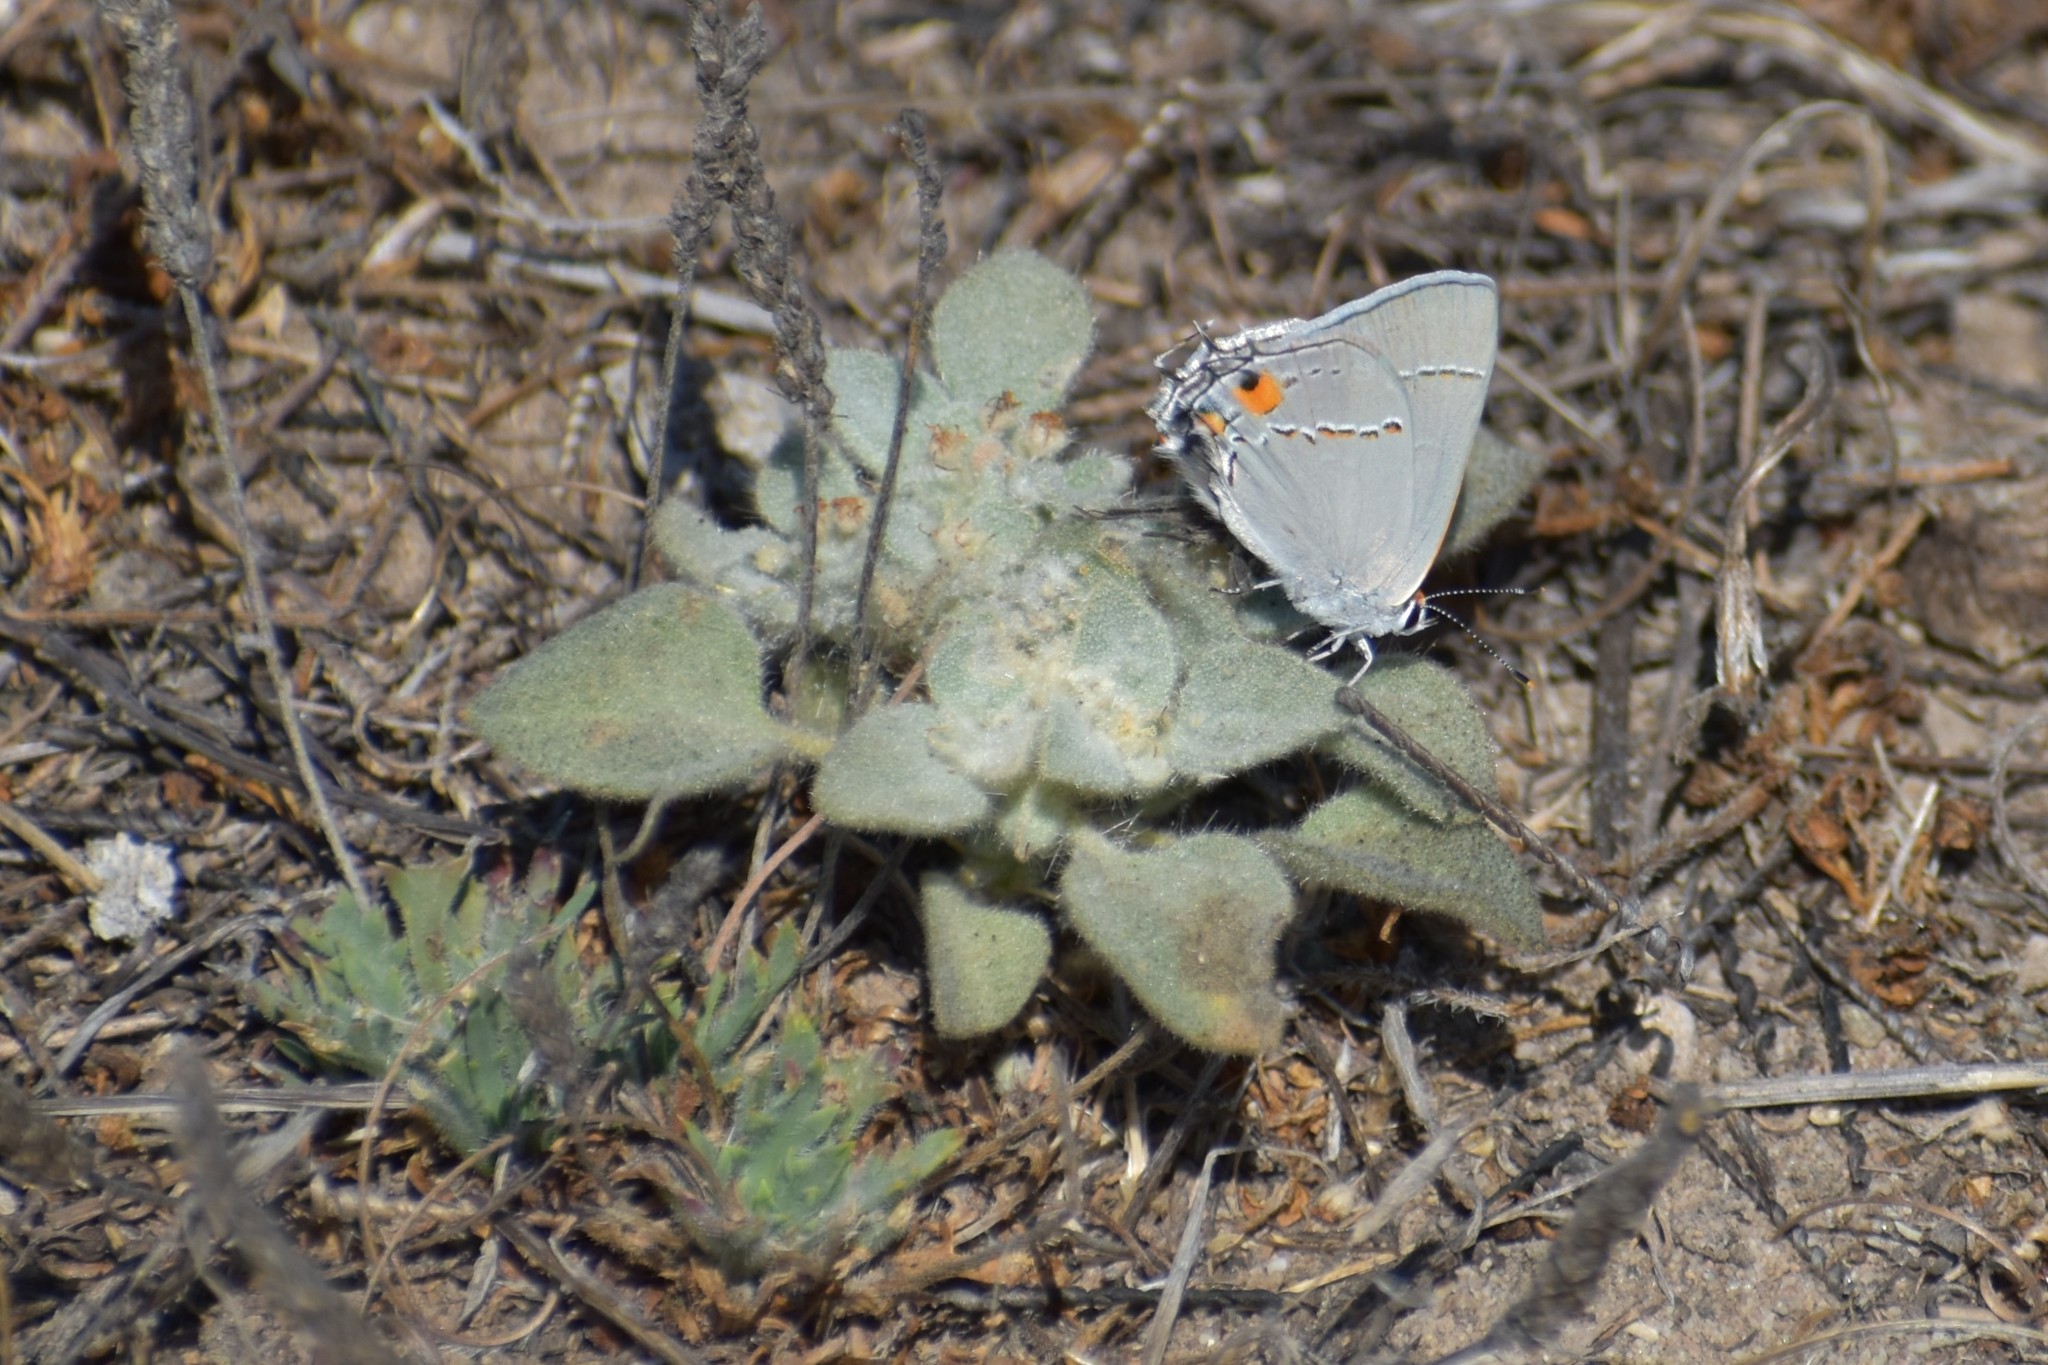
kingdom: Animalia
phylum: Arthropoda
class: Insecta
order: Lepidoptera
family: Lycaenidae
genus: Strymon
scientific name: Strymon melinus
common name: Gray hairstreak
